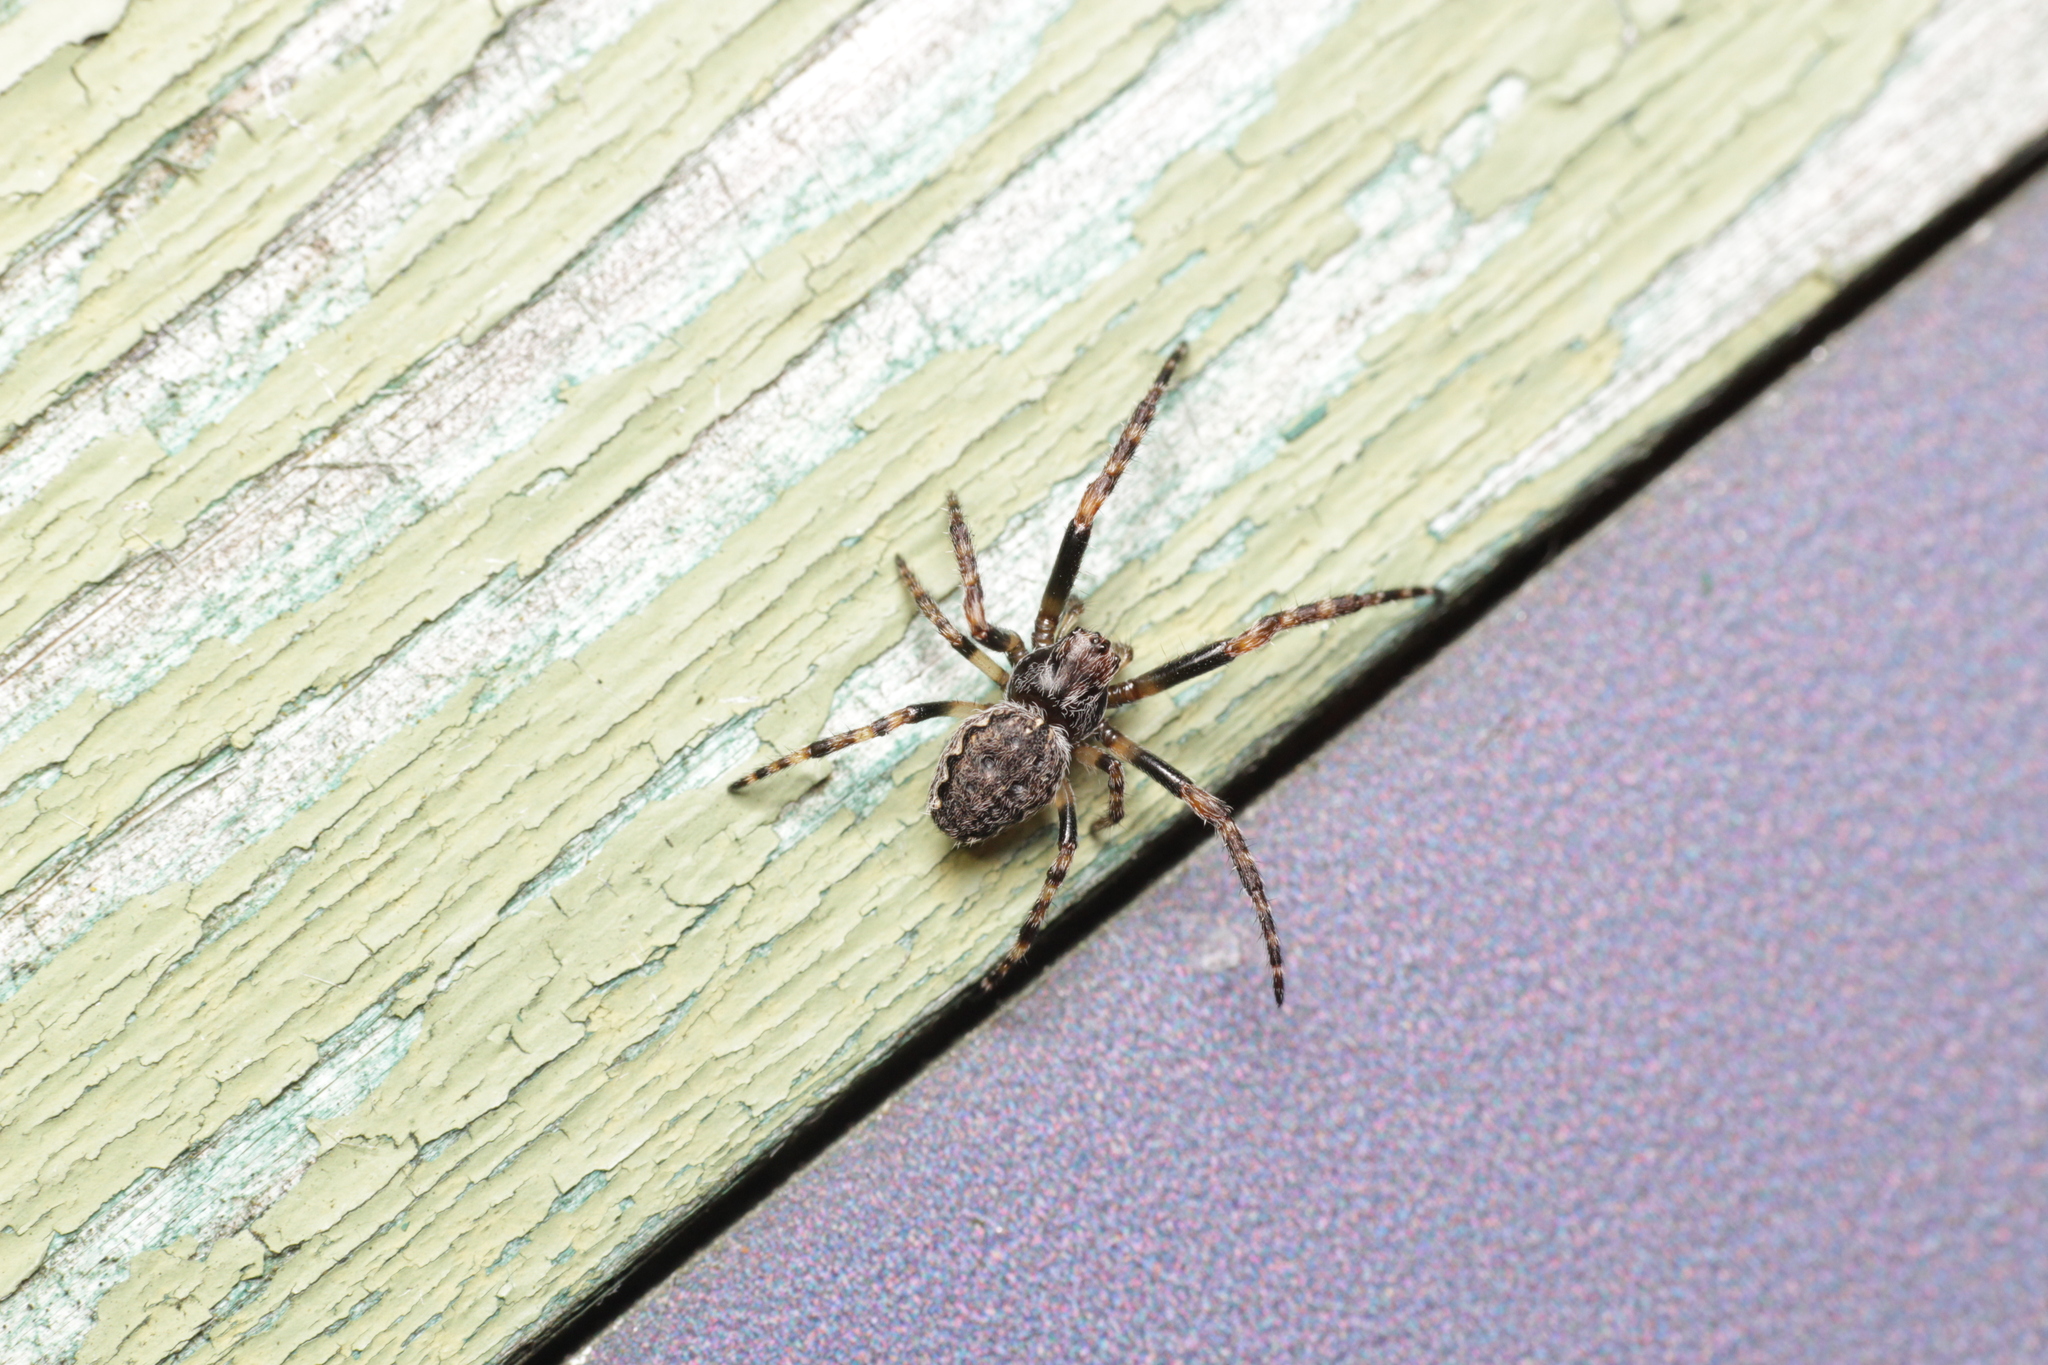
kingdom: Animalia
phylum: Arthropoda
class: Arachnida
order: Araneae
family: Araneidae
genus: Nuctenea
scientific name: Nuctenea umbratica
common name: Toad spider
